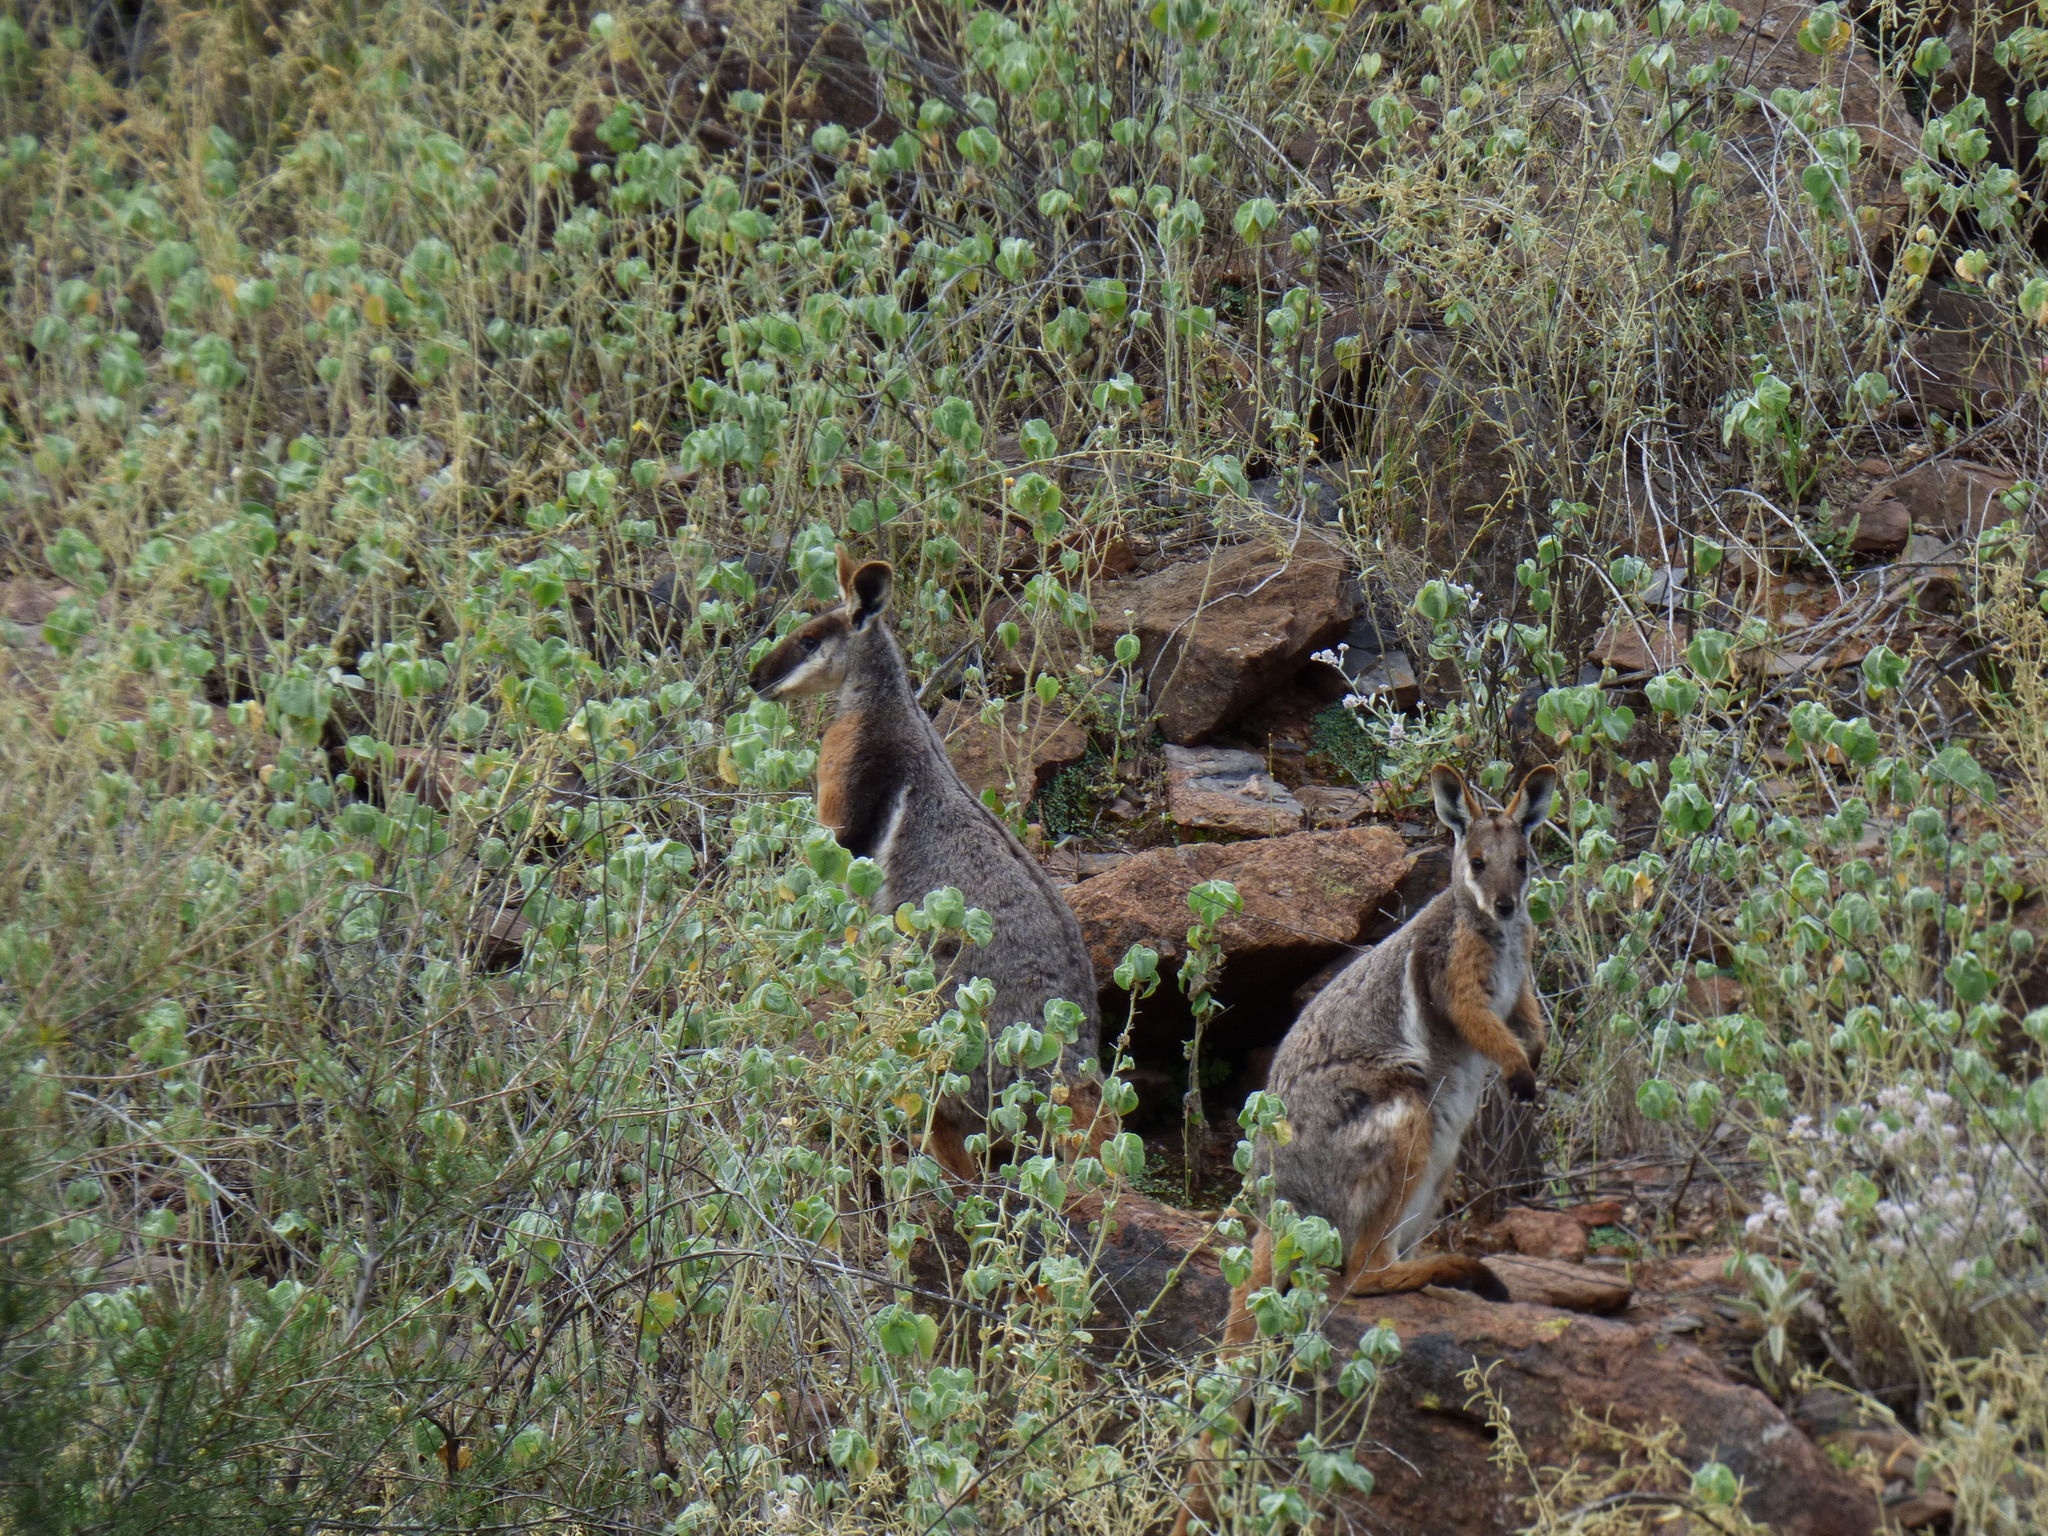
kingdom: Animalia
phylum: Chordata
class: Mammalia
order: Diprotodontia
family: Macropodidae
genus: Petrogale
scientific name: Petrogale xanthopus
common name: Yellow-footed rock-wallaby
